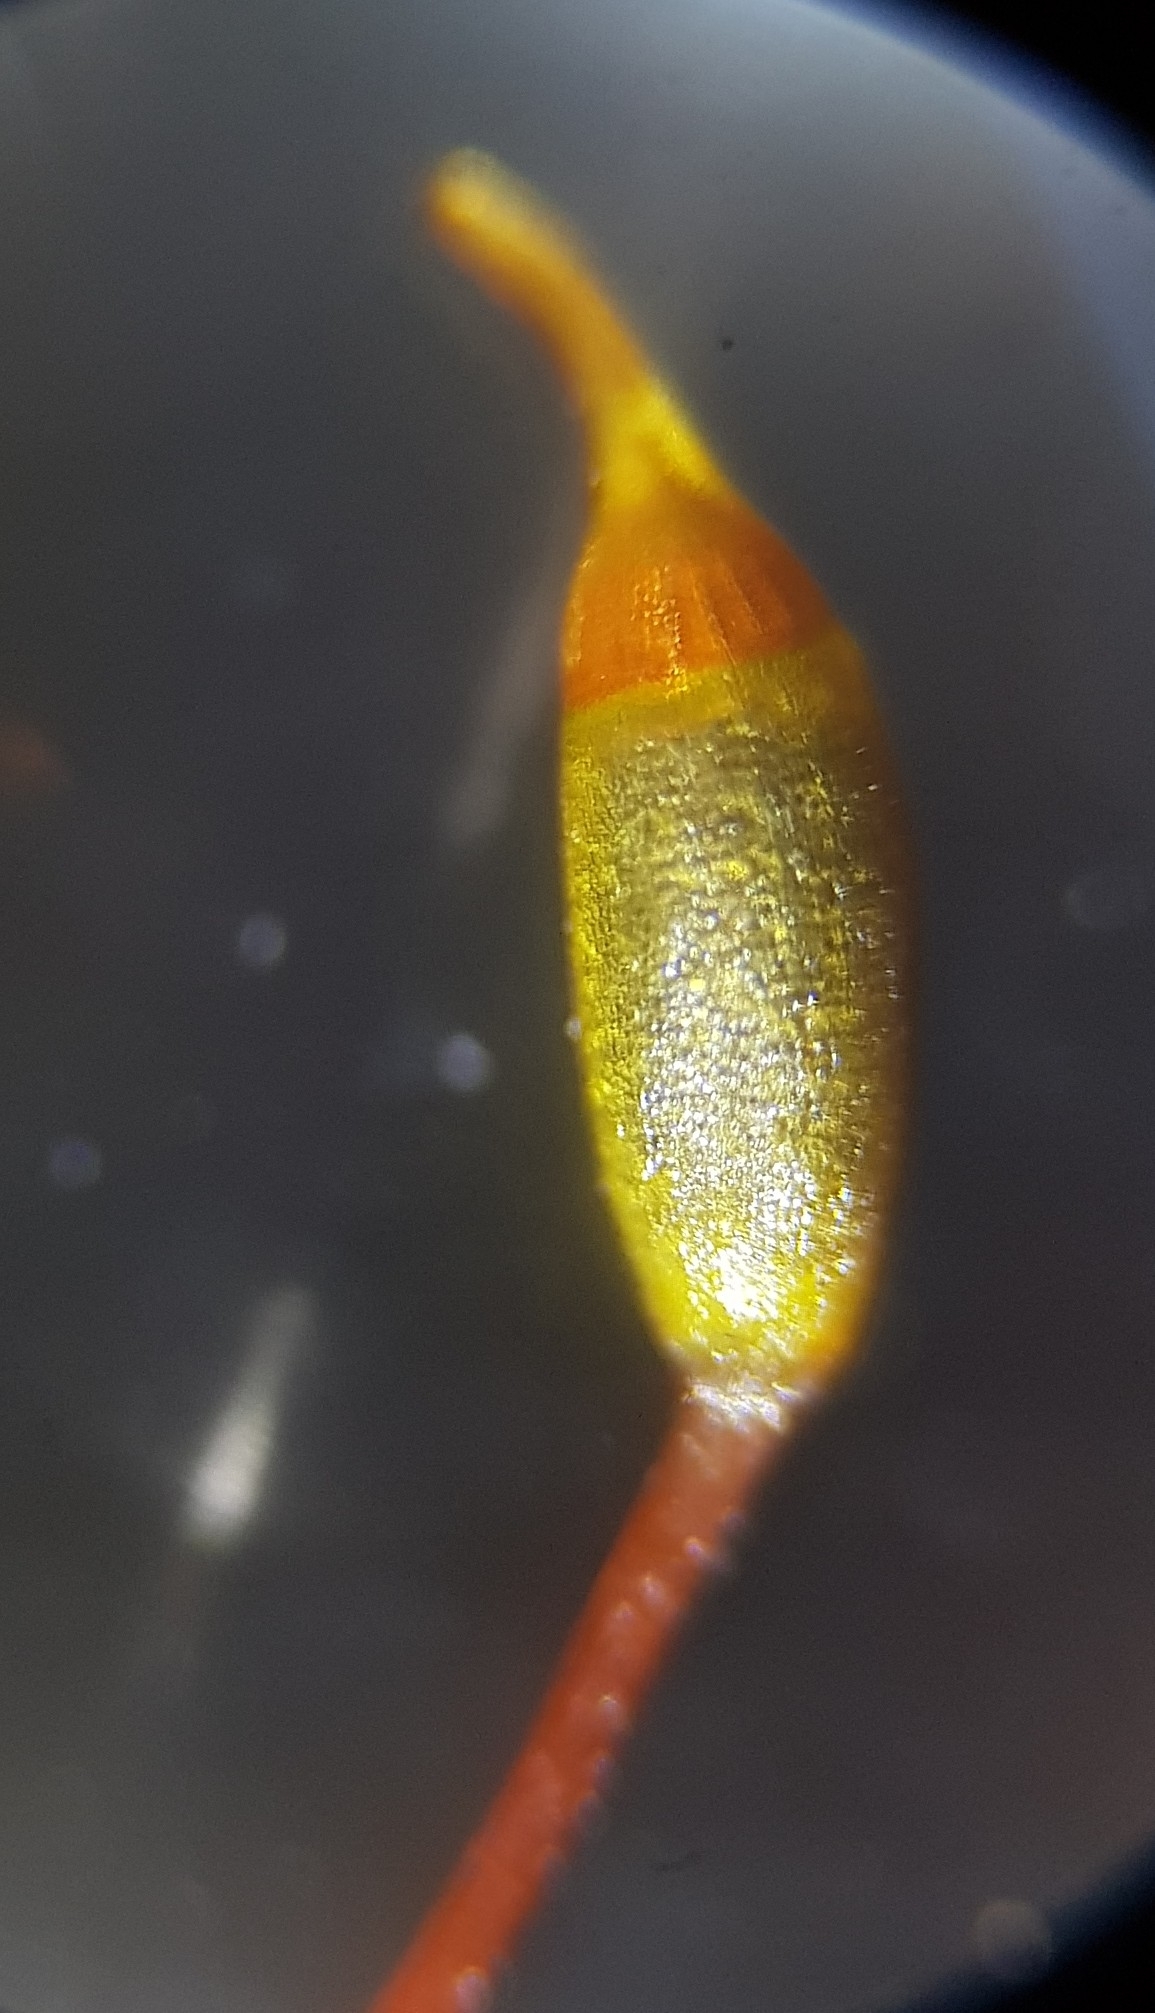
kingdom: Plantae
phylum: Bryophyta
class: Bryopsida
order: Hypnales
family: Brachytheciaceae
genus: Rhynchostegium
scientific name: Rhynchostegium confertum
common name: Clustered feather-moss
